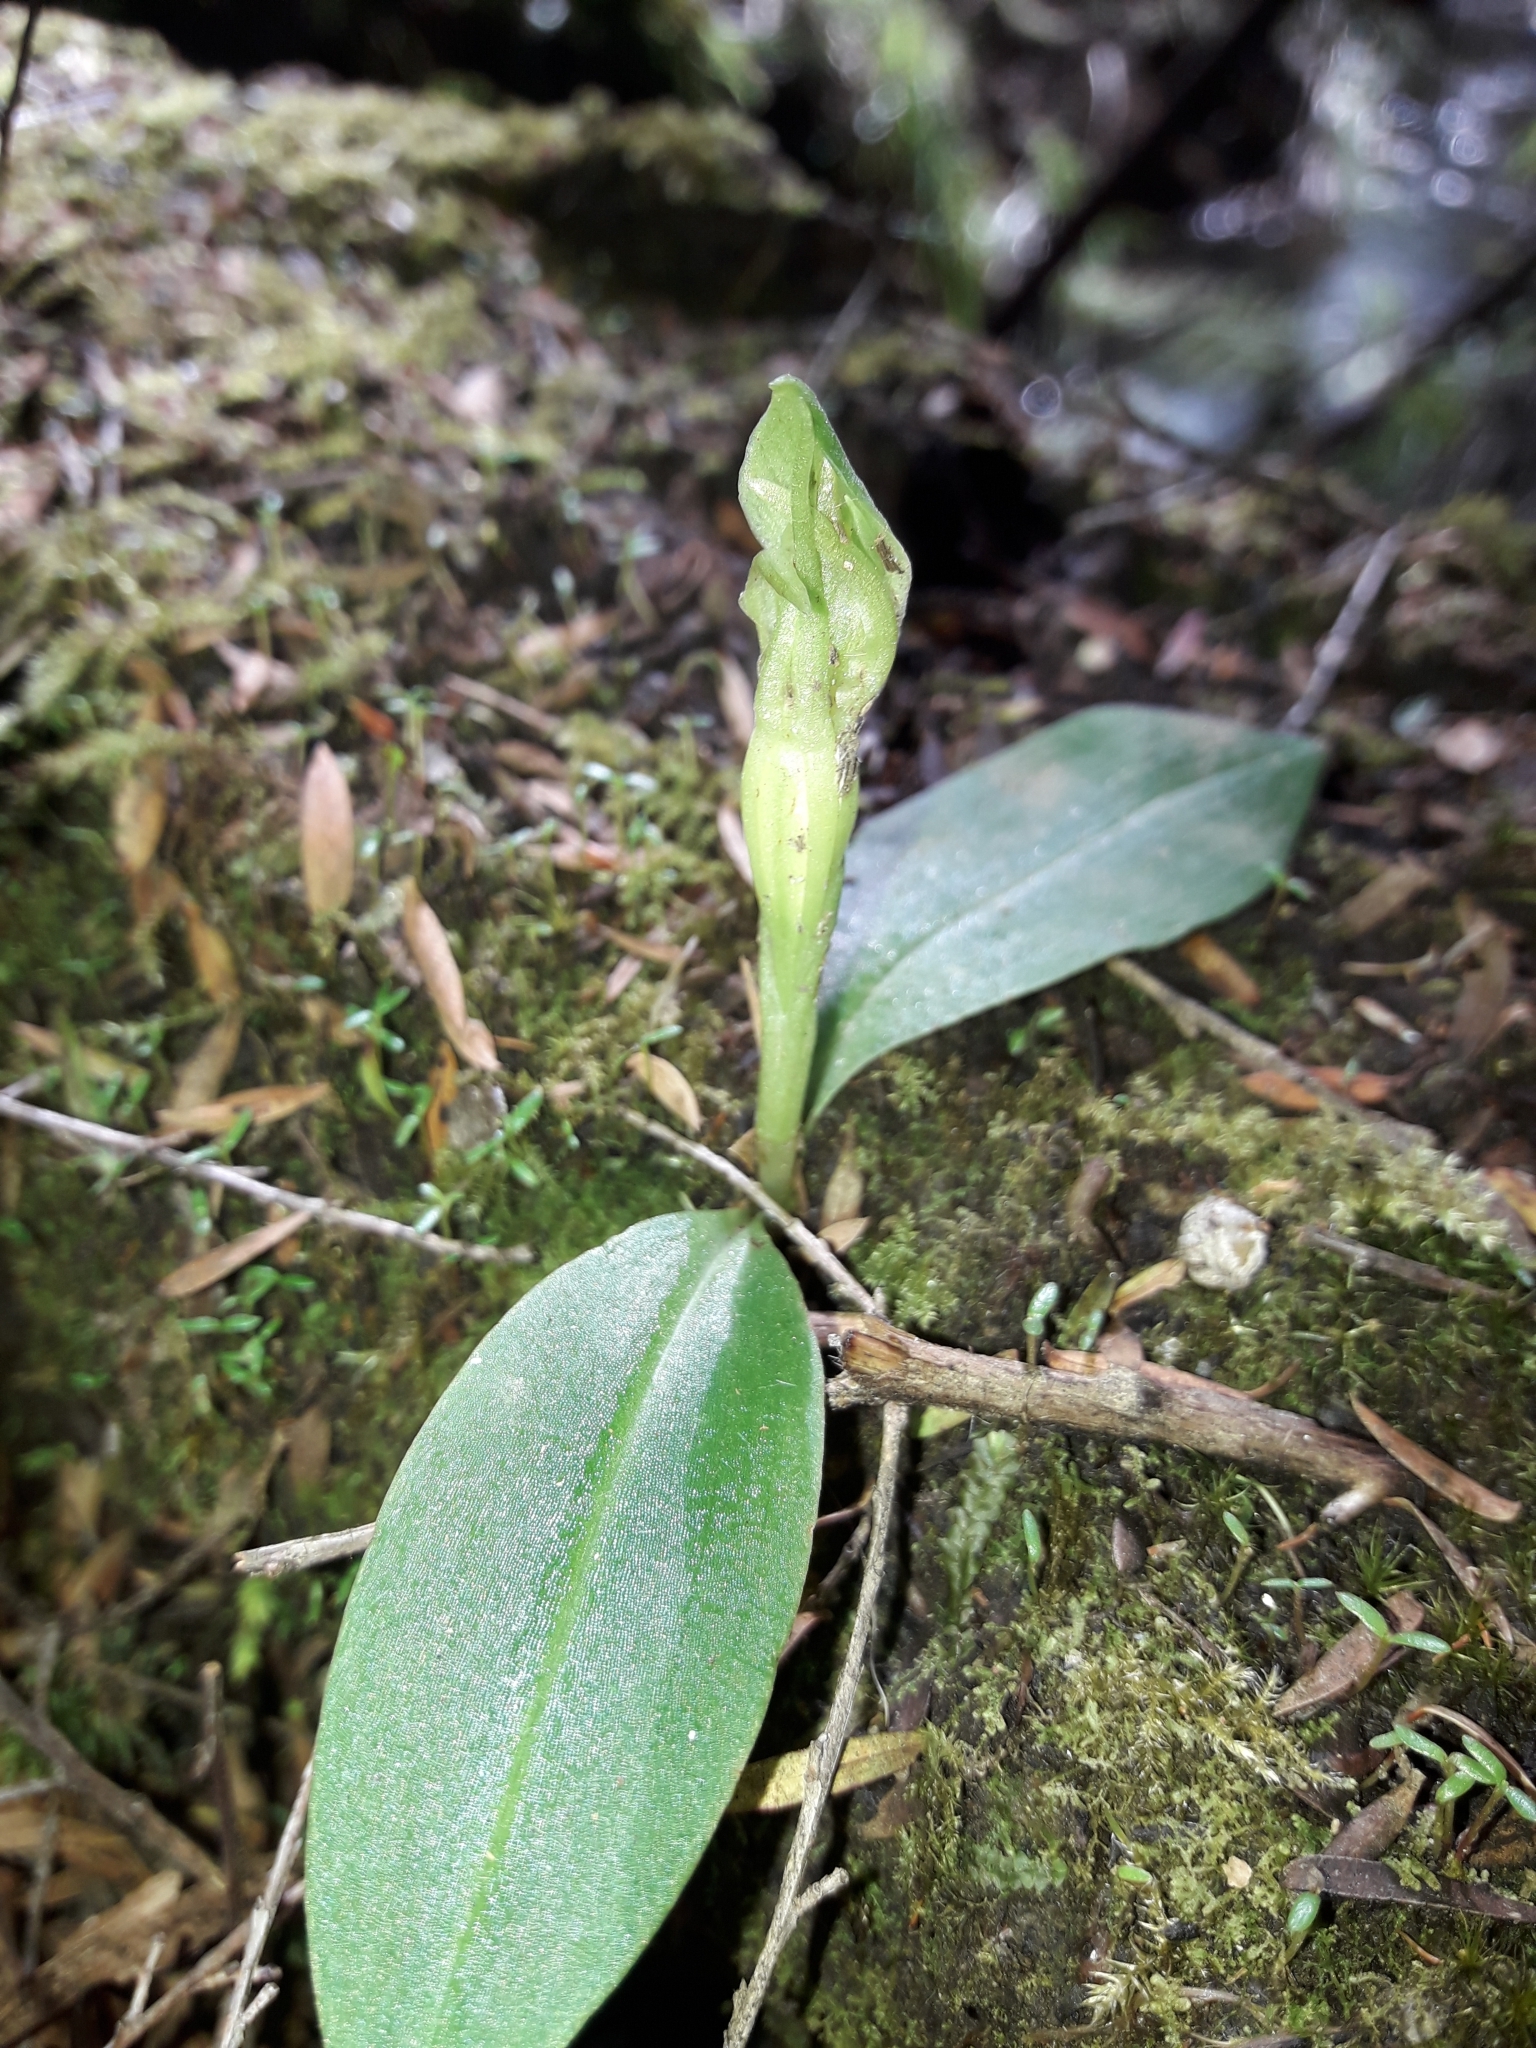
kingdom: Plantae
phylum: Tracheophyta
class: Liliopsida
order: Asparagales
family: Orchidaceae
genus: Chiloglottis
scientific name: Chiloglottis cornuta
